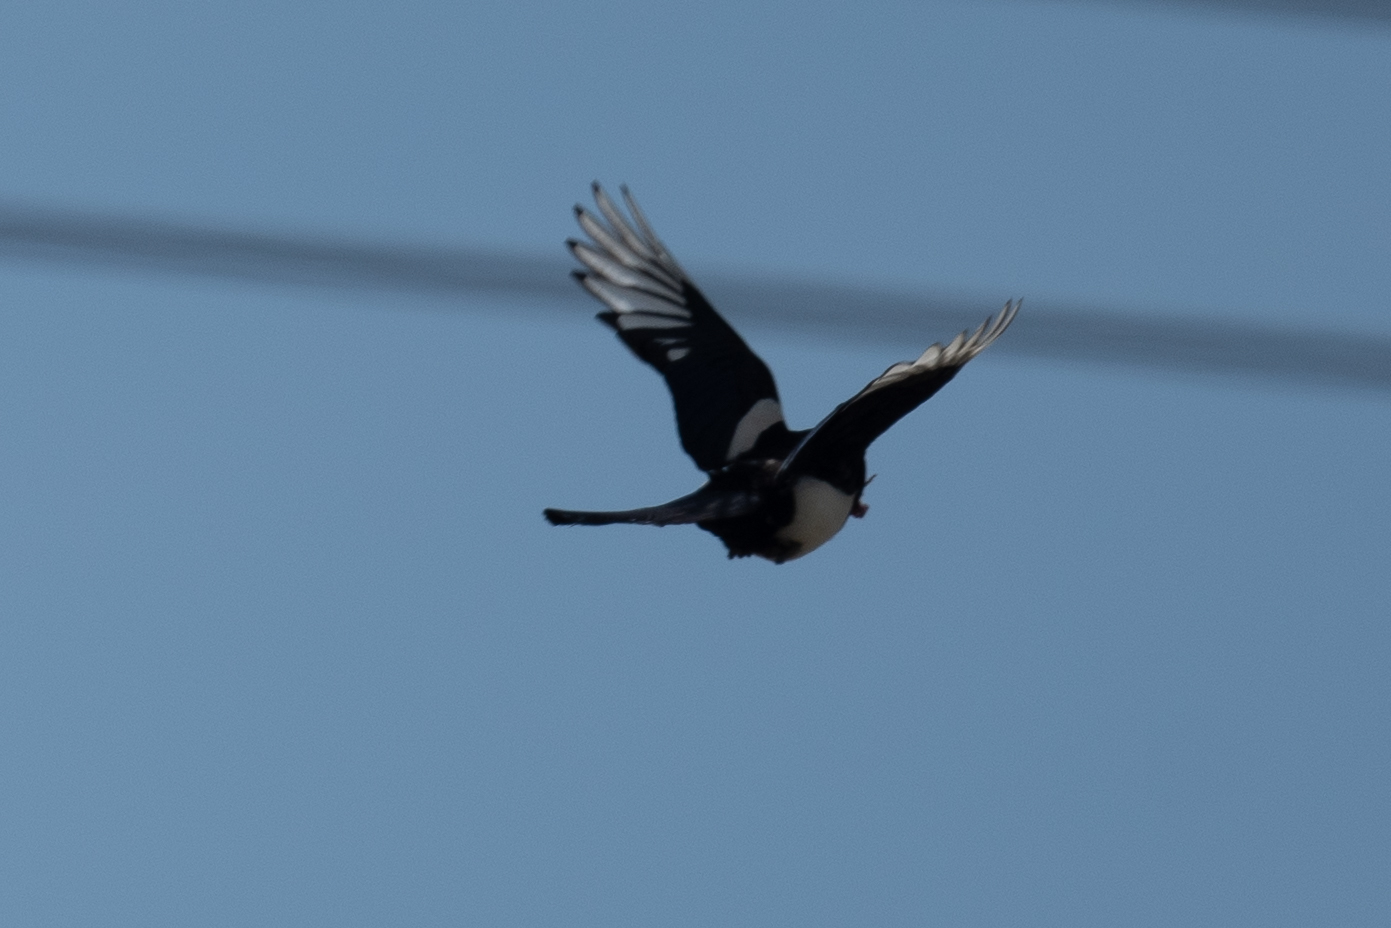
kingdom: Animalia
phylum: Chordata
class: Aves
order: Passeriformes
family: Corvidae
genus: Pica
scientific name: Pica nuttalli
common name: Yellow-billed magpie
